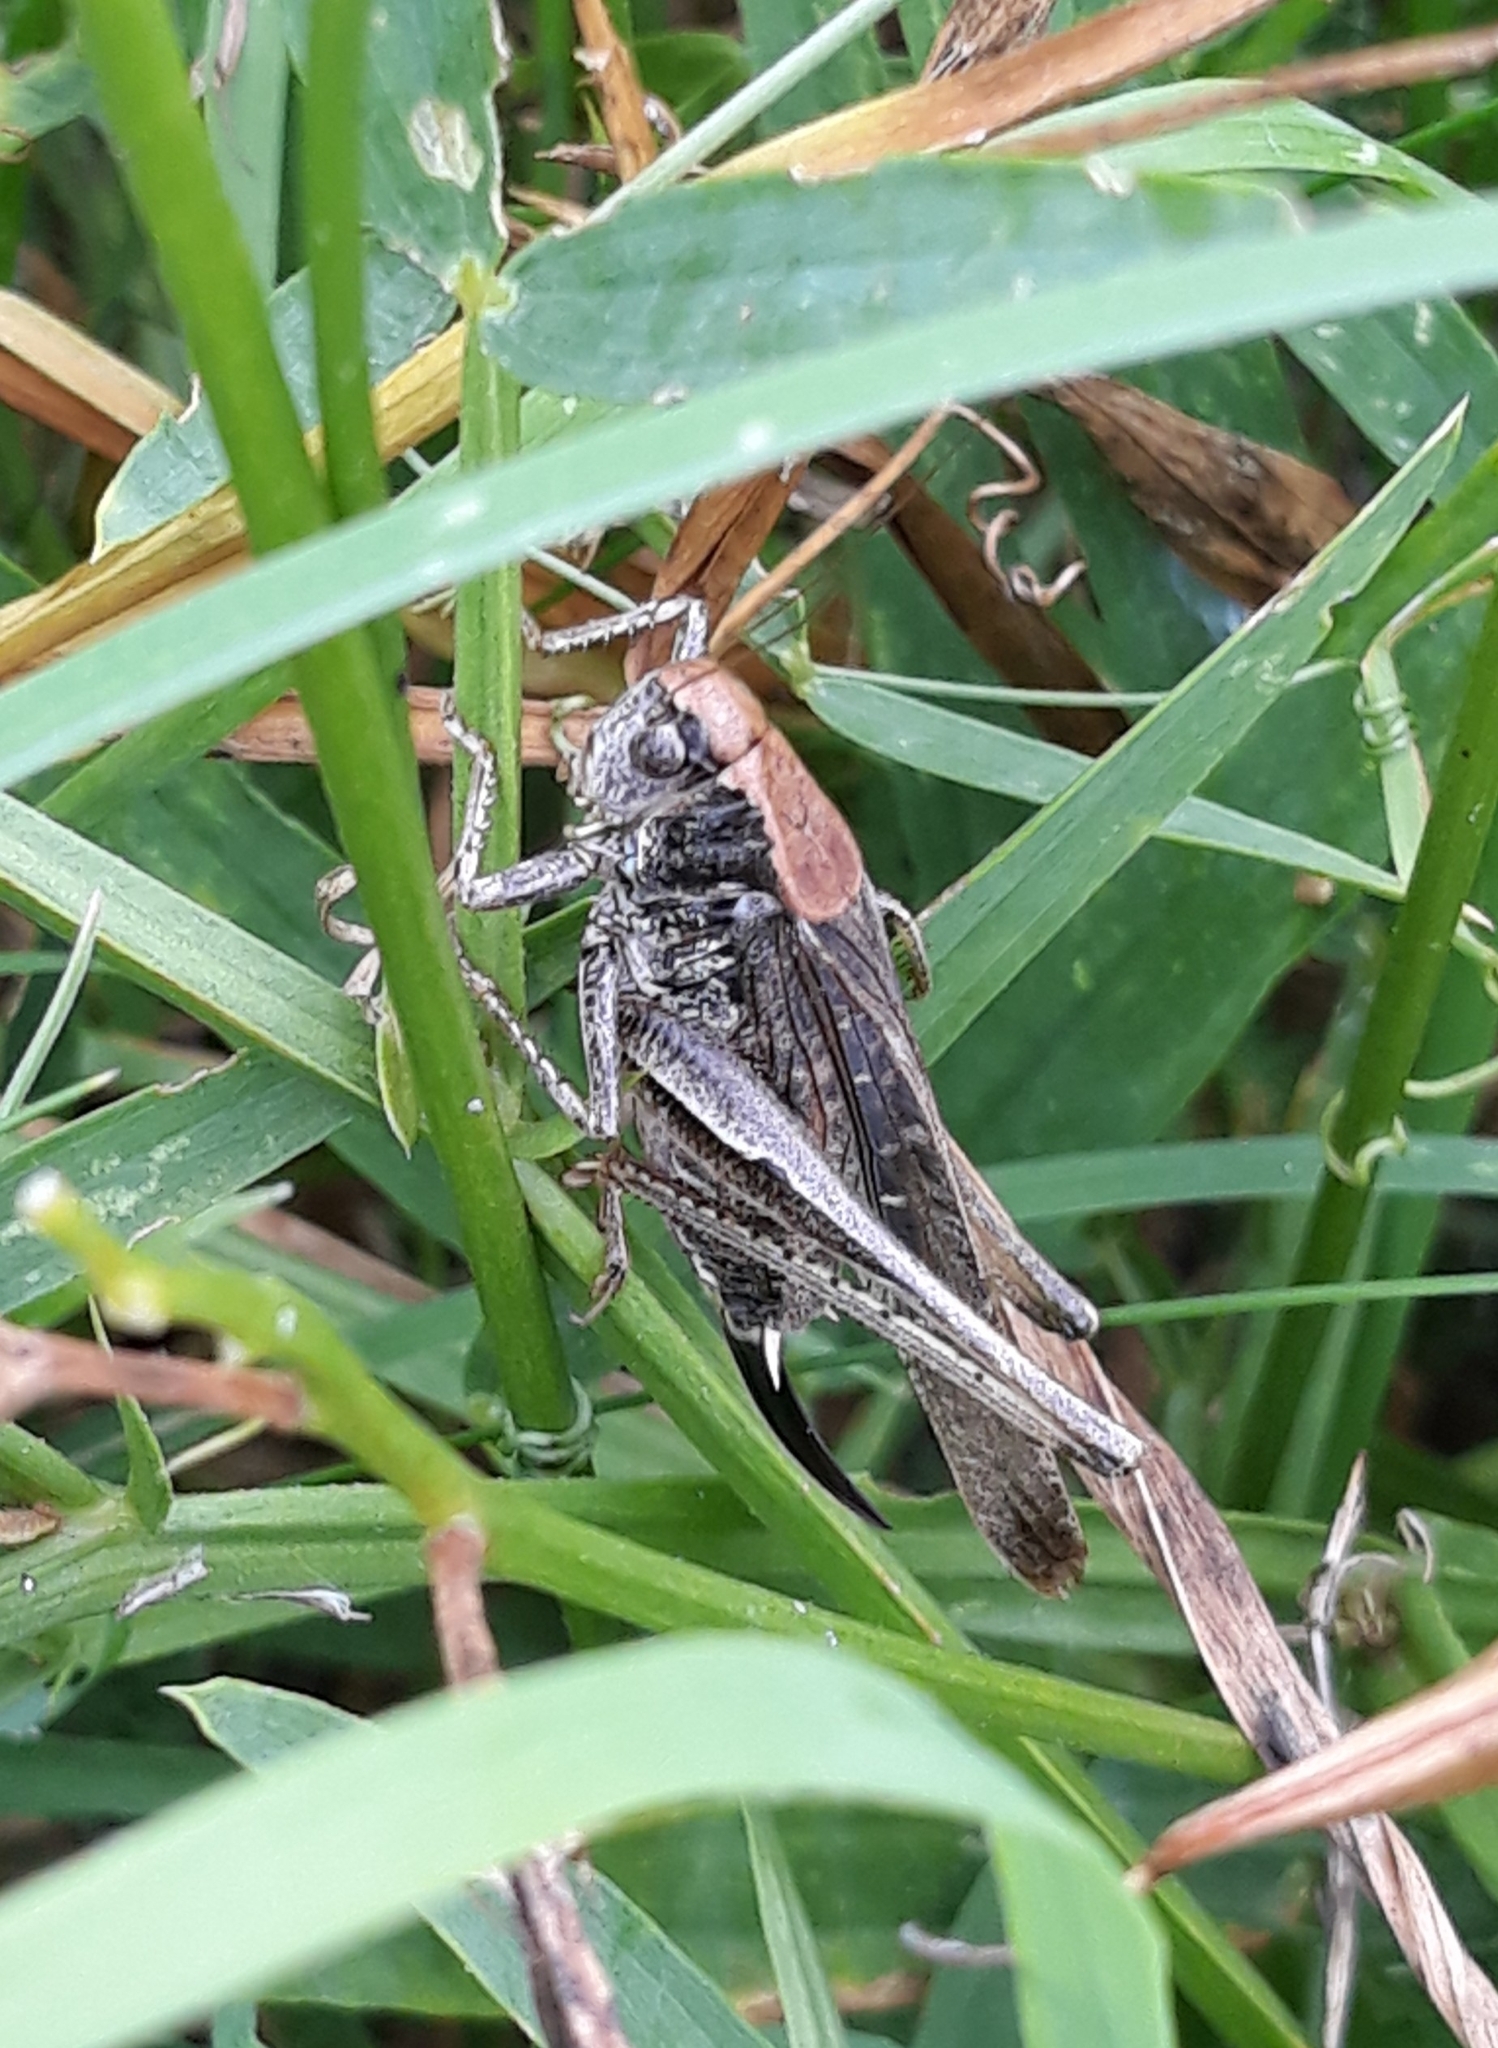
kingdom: Animalia
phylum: Arthropoda
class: Insecta
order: Orthoptera
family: Tettigoniidae
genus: Platycleis
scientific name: Platycleis albopunctata
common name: Grey bush-cricket
